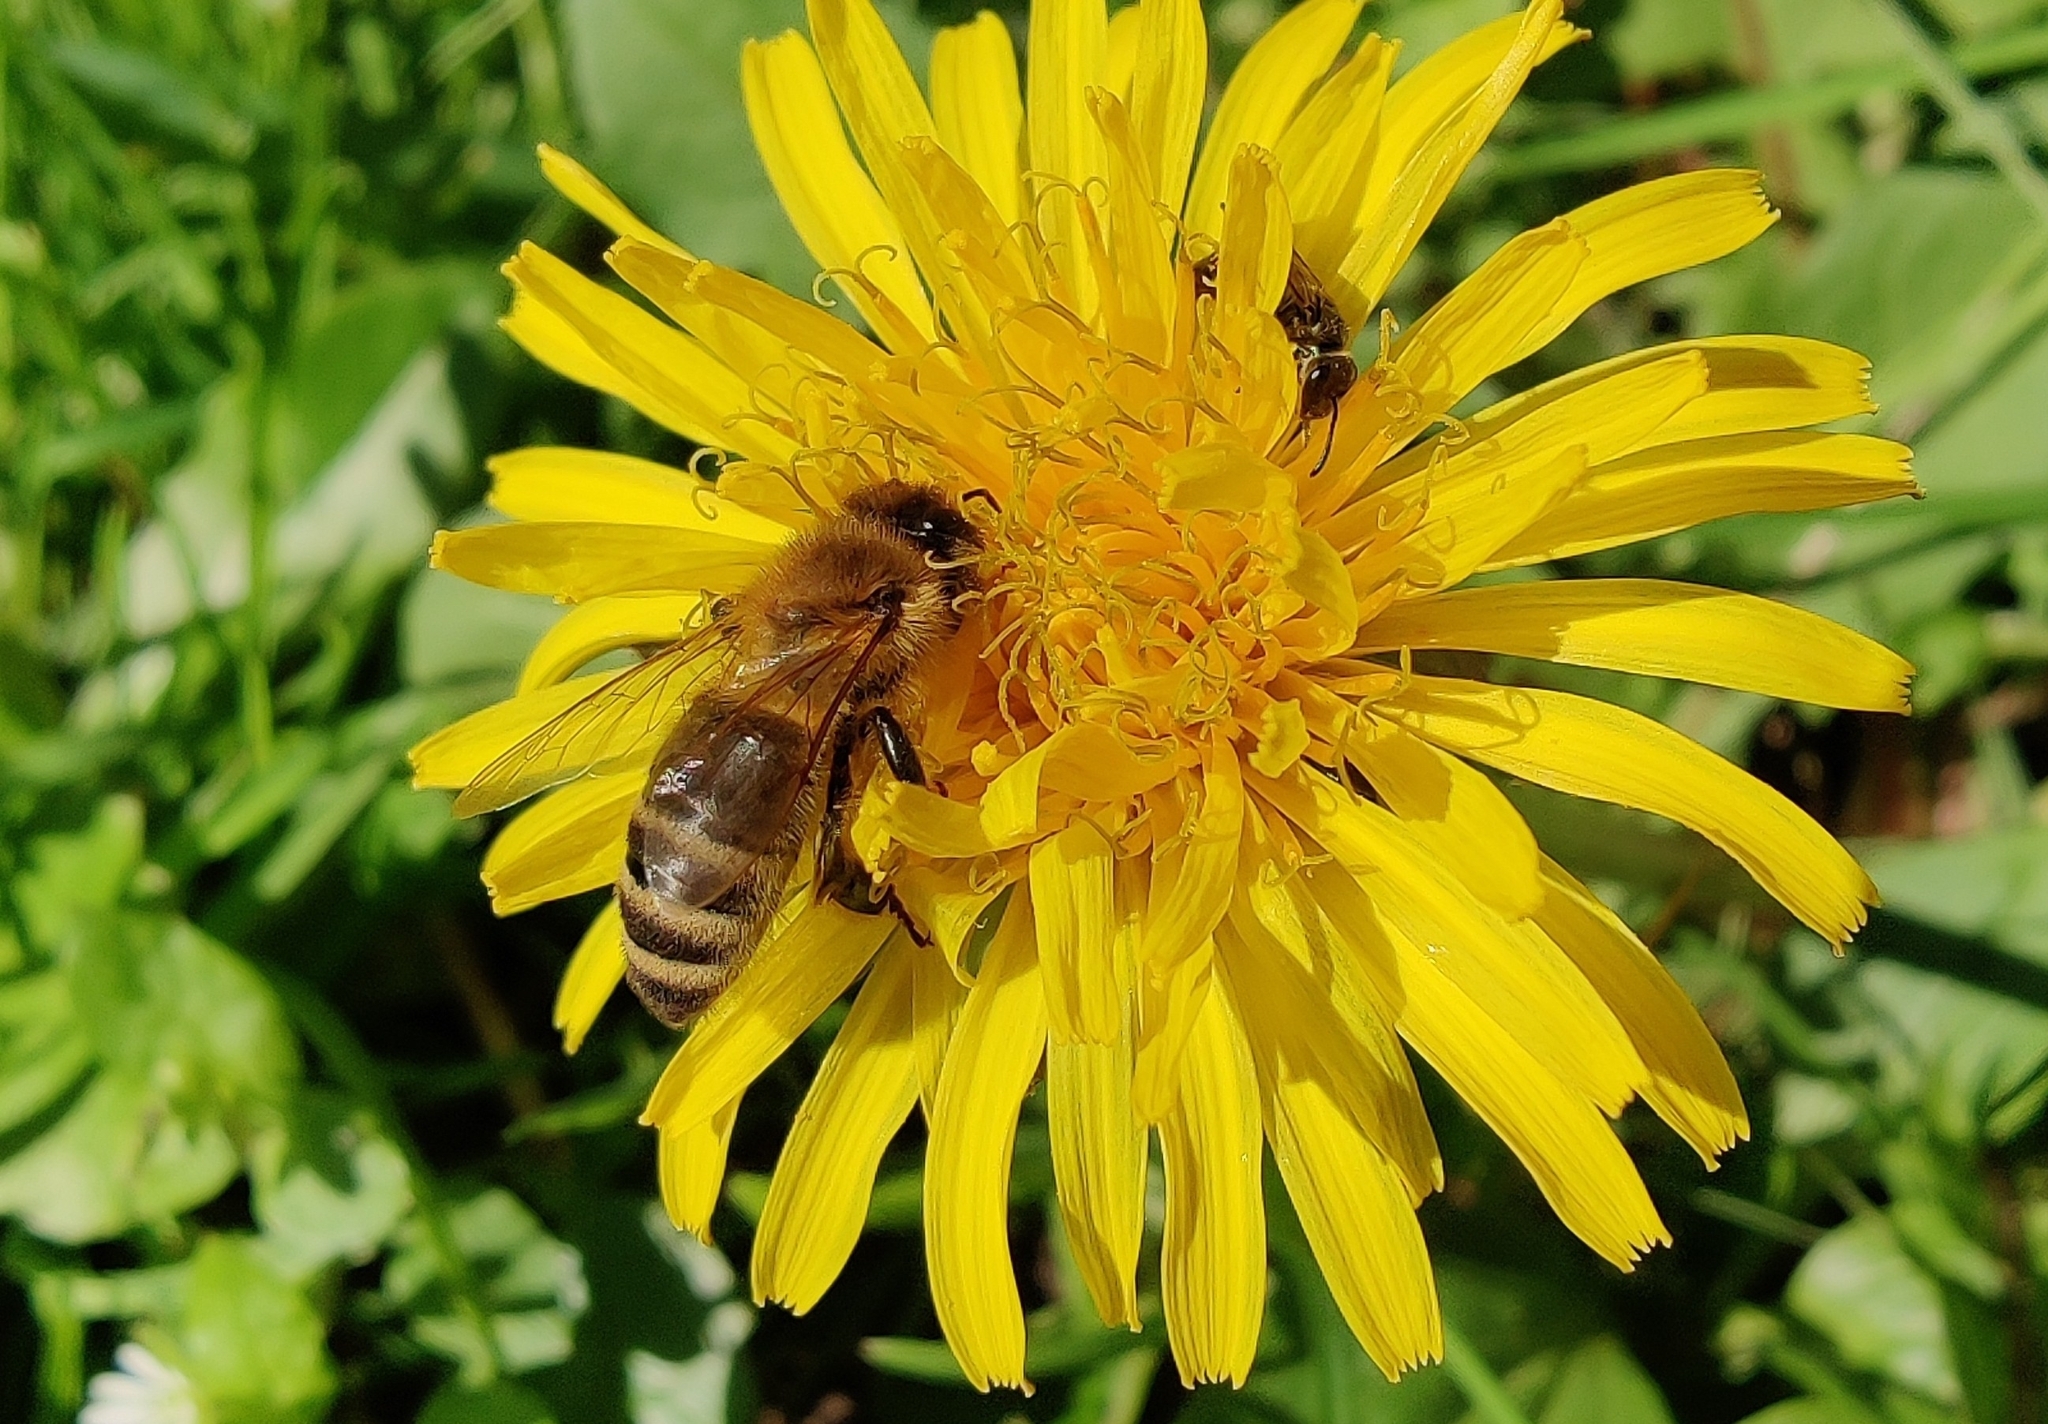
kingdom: Animalia
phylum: Arthropoda
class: Insecta
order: Hymenoptera
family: Apidae
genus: Apis
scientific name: Apis mellifera
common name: Honey bee
